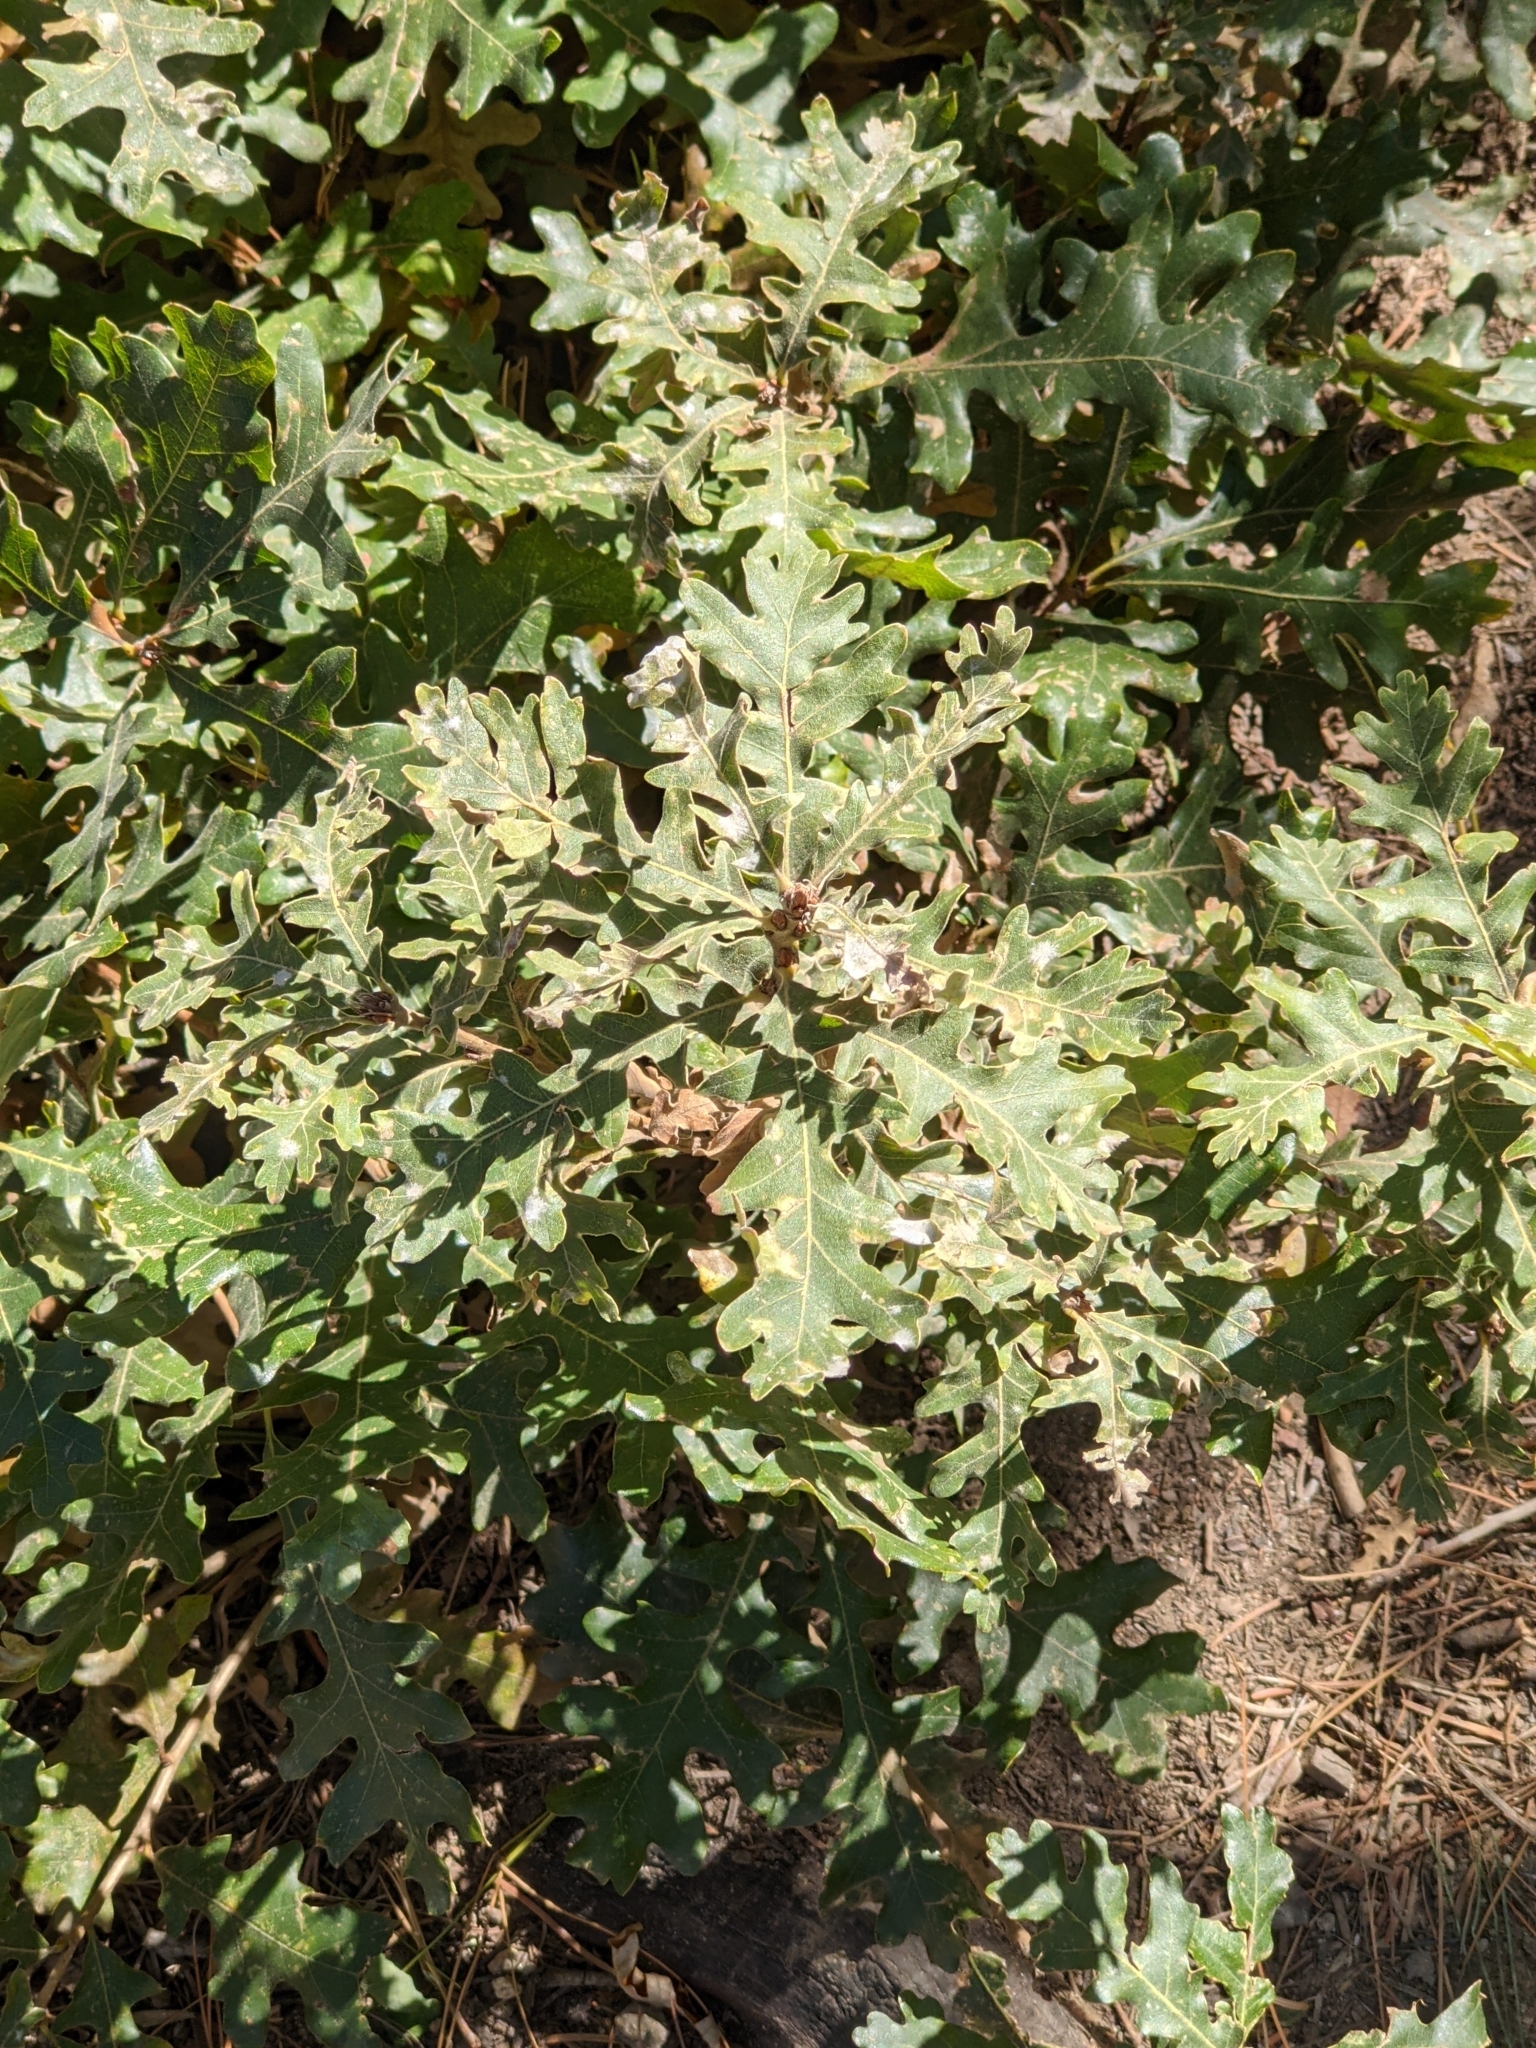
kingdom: Plantae
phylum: Tracheophyta
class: Magnoliopsida
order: Fagales
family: Fagaceae
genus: Quercus
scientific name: Quercus gambelii
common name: Gambel oak
